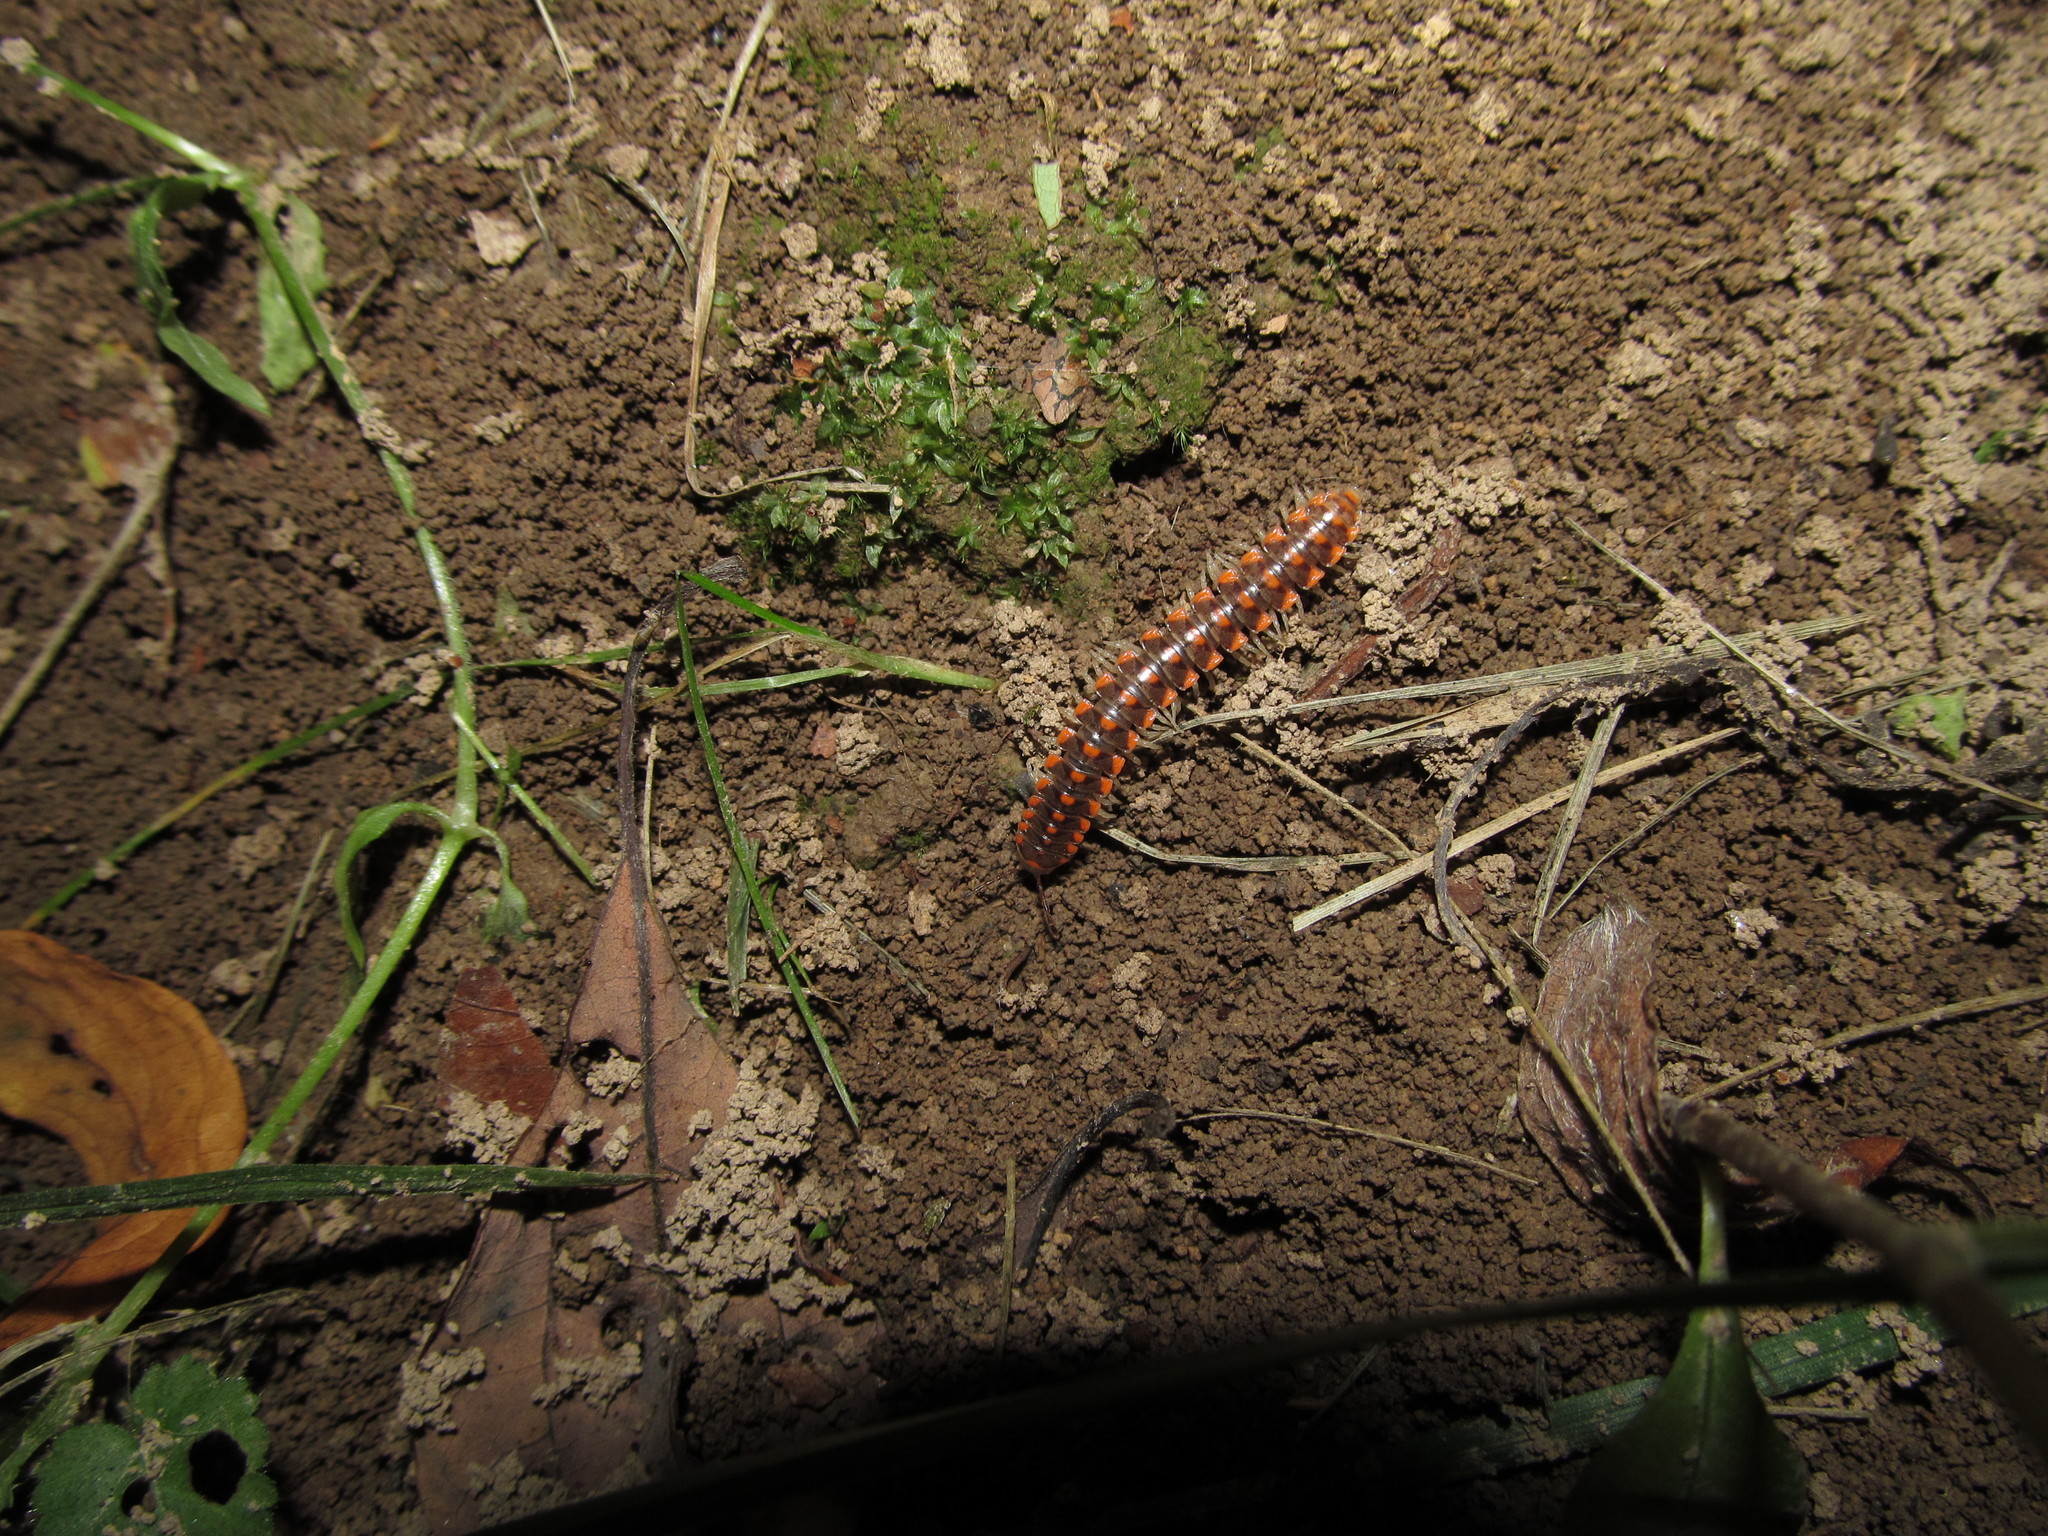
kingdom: Animalia
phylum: Arthropoda
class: Diplopoda
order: Polydesmida
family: Xystodesmidae
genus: Euryurus
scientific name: Euryurus leachii
